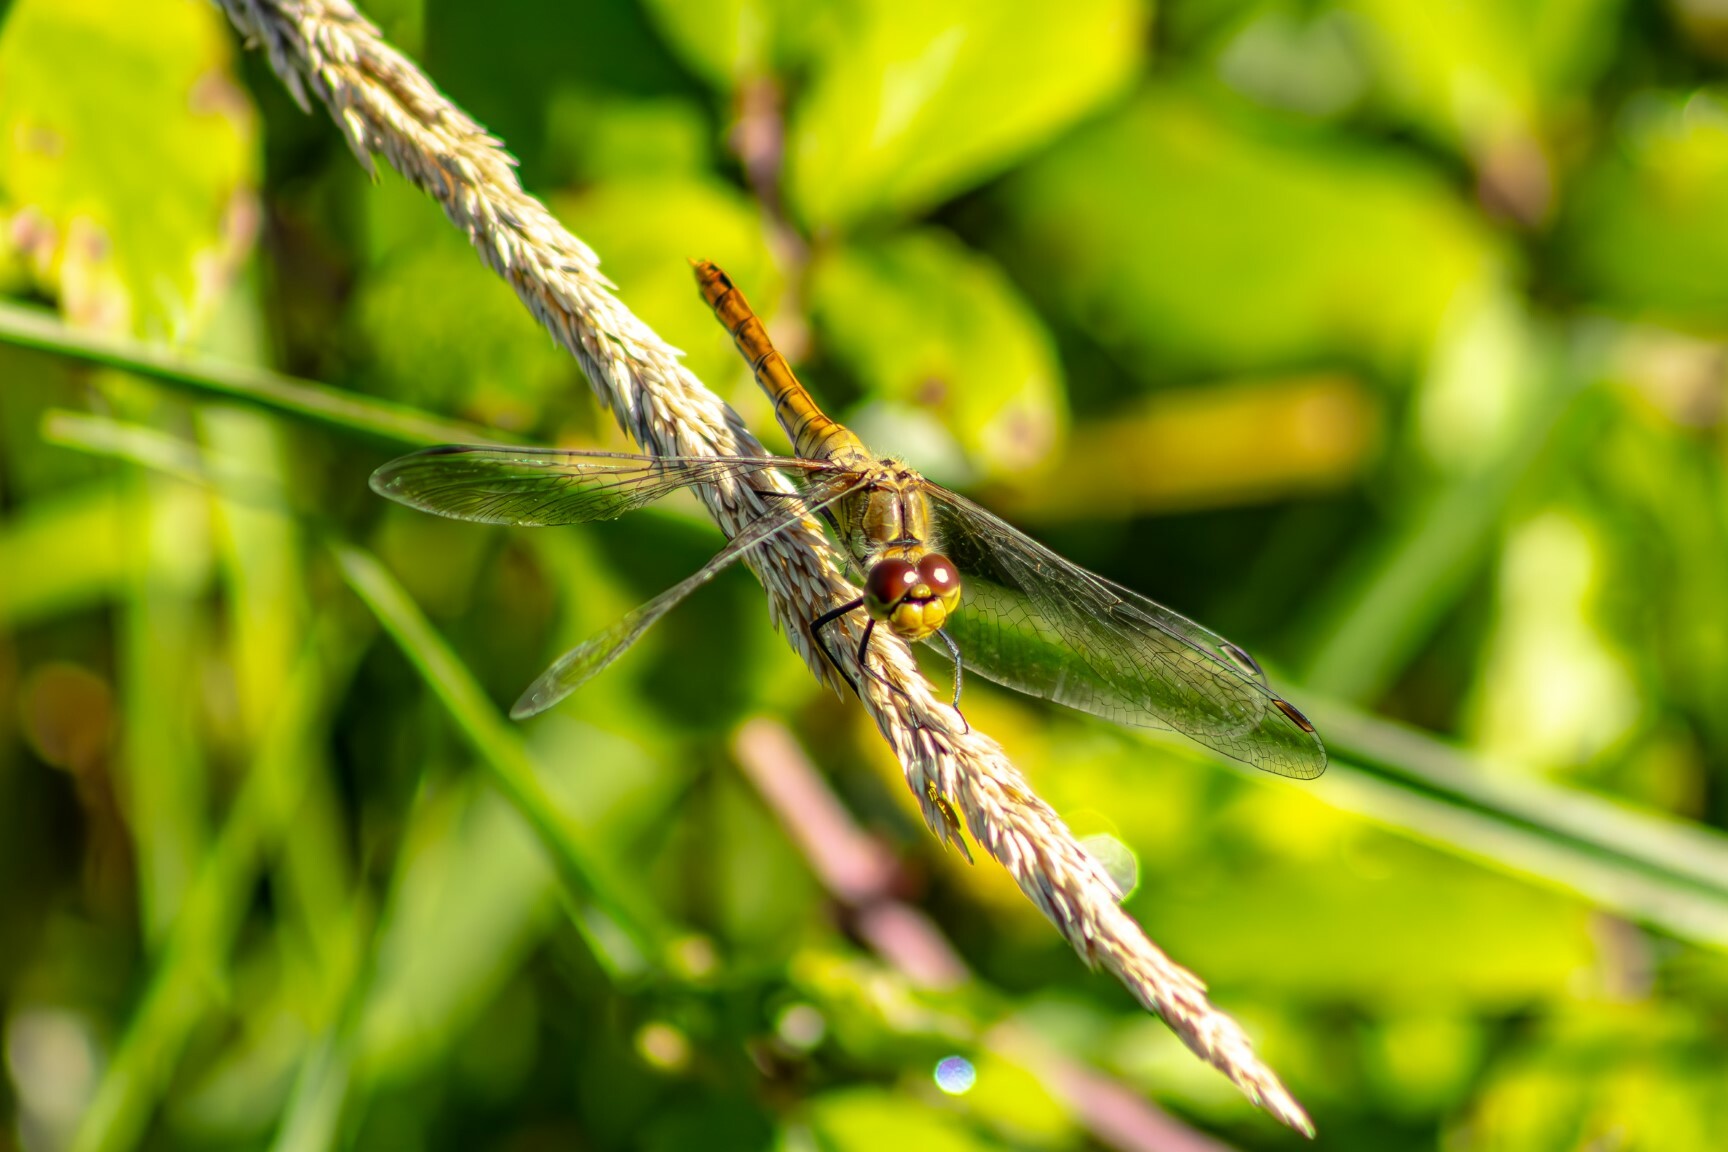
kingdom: Animalia
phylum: Arthropoda
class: Insecta
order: Odonata
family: Libellulidae
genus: Sympetrum
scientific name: Sympetrum sanguineum
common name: Ruddy darter
